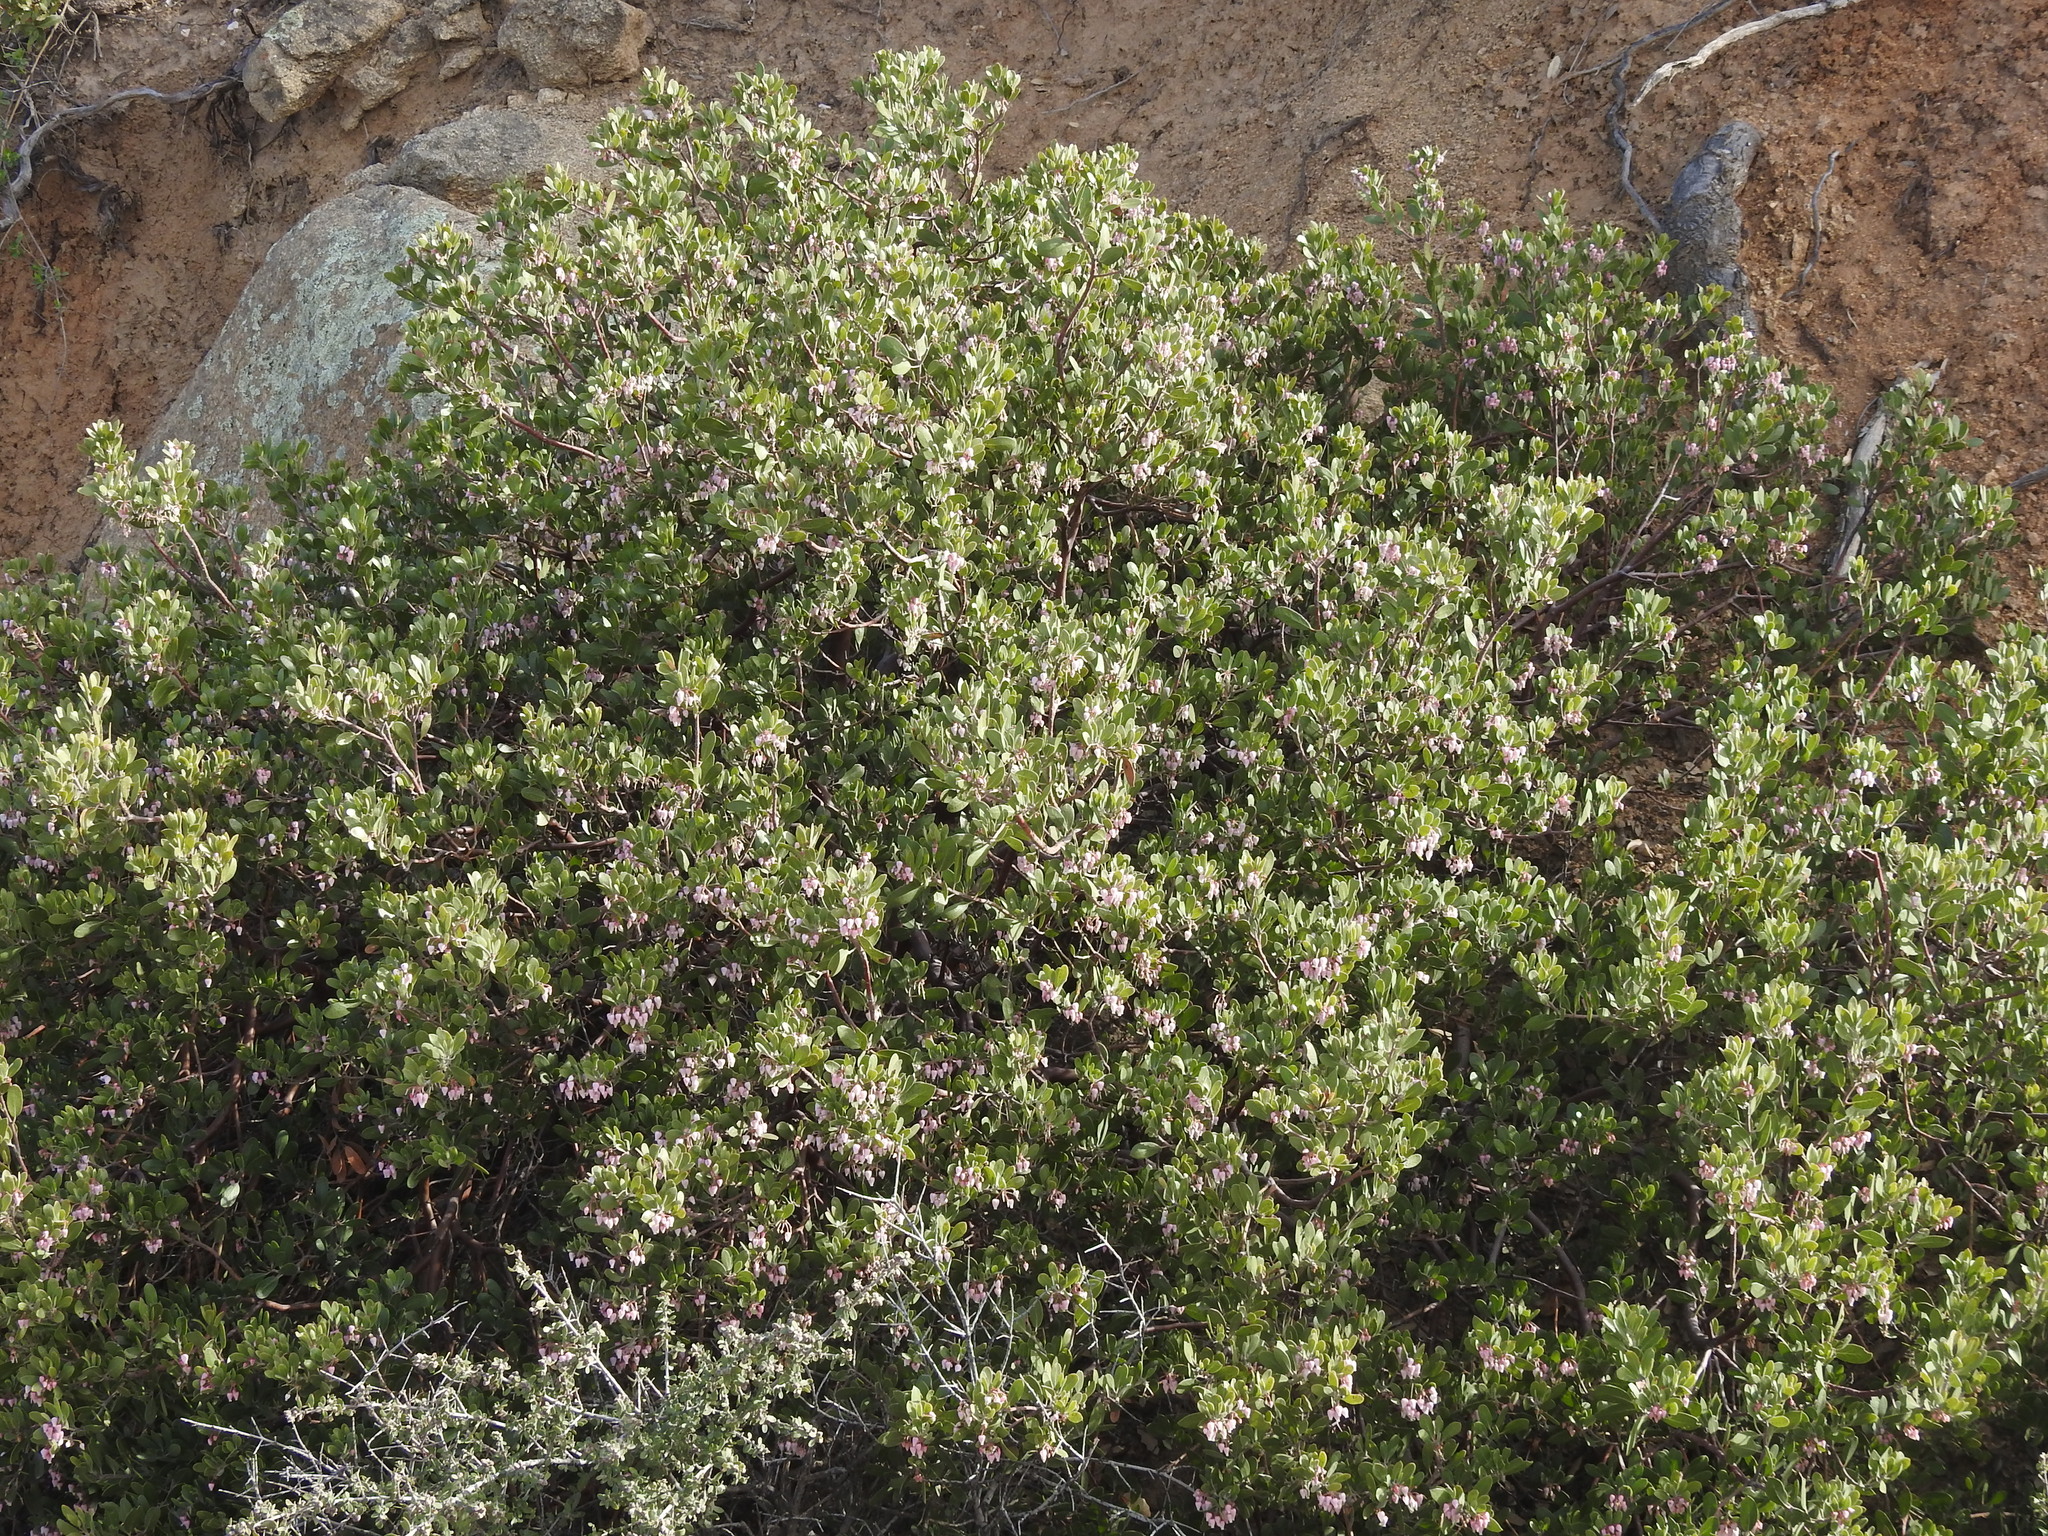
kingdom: Plantae
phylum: Tracheophyta
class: Magnoliopsida
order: Ericales
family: Ericaceae
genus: Arctostaphylos
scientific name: Arctostaphylos pungens
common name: Mexican manzanita
